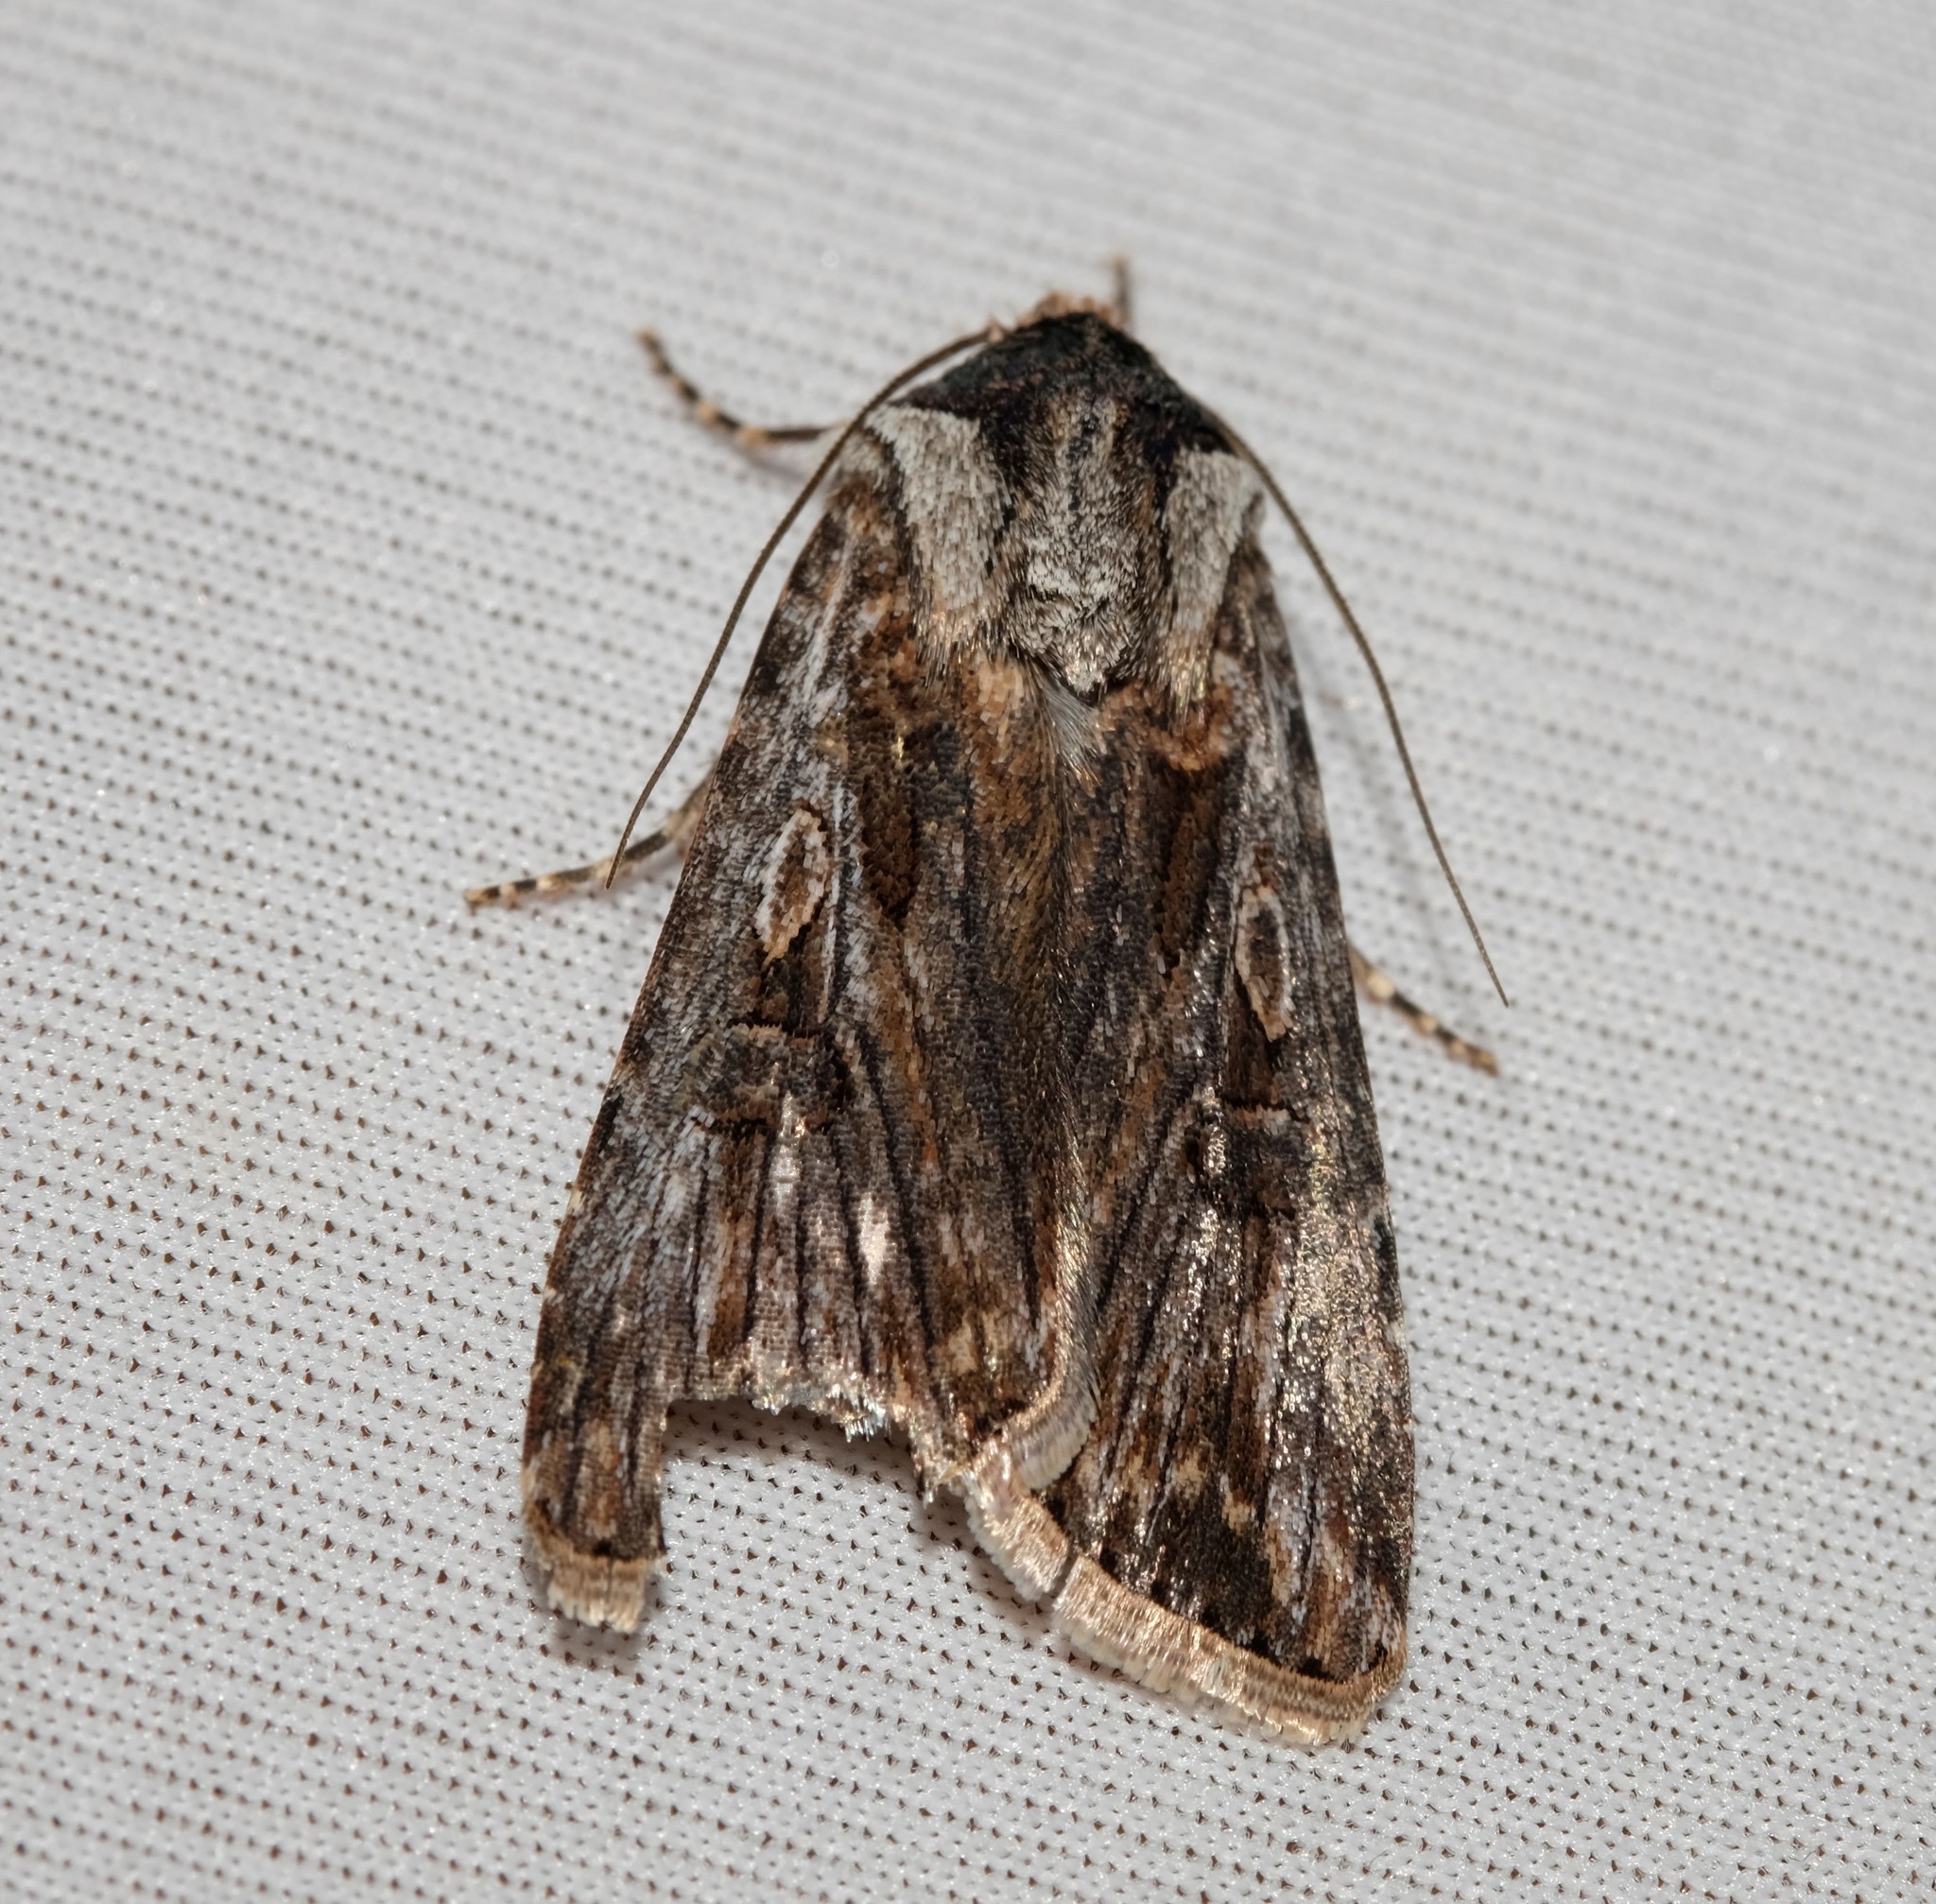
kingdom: Animalia
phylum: Arthropoda
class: Insecta
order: Lepidoptera
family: Noctuidae
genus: Agrotis
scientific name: Agrotis munda
